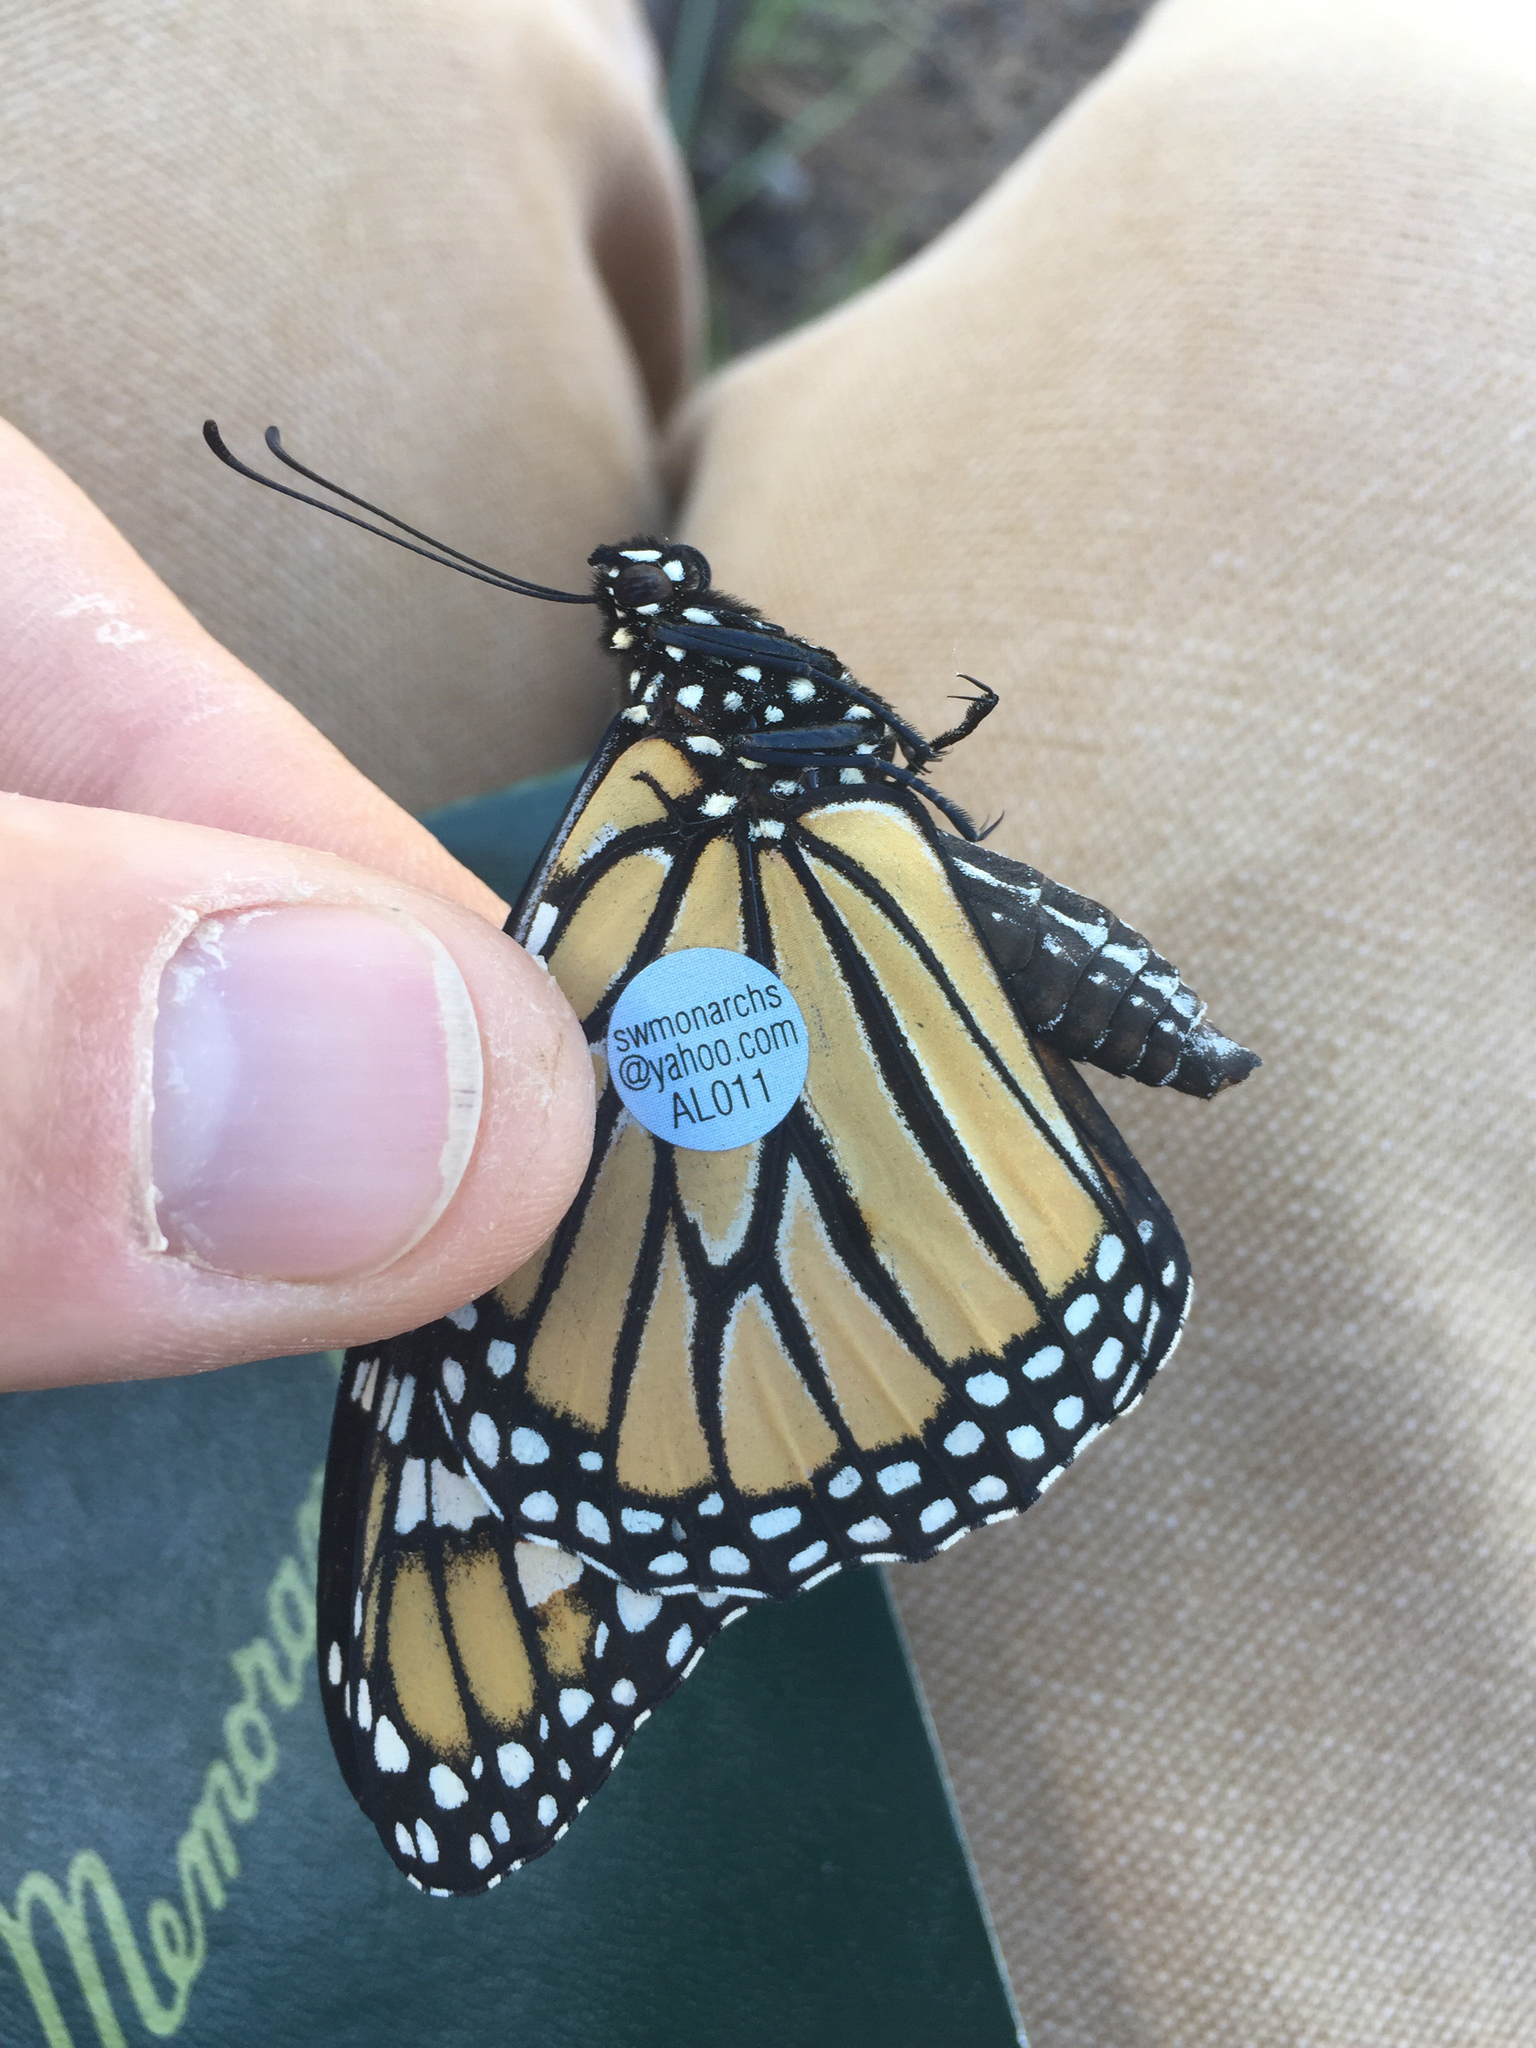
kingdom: Animalia
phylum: Arthropoda
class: Insecta
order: Lepidoptera
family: Nymphalidae
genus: Danaus
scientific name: Danaus plexippus
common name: Monarch
